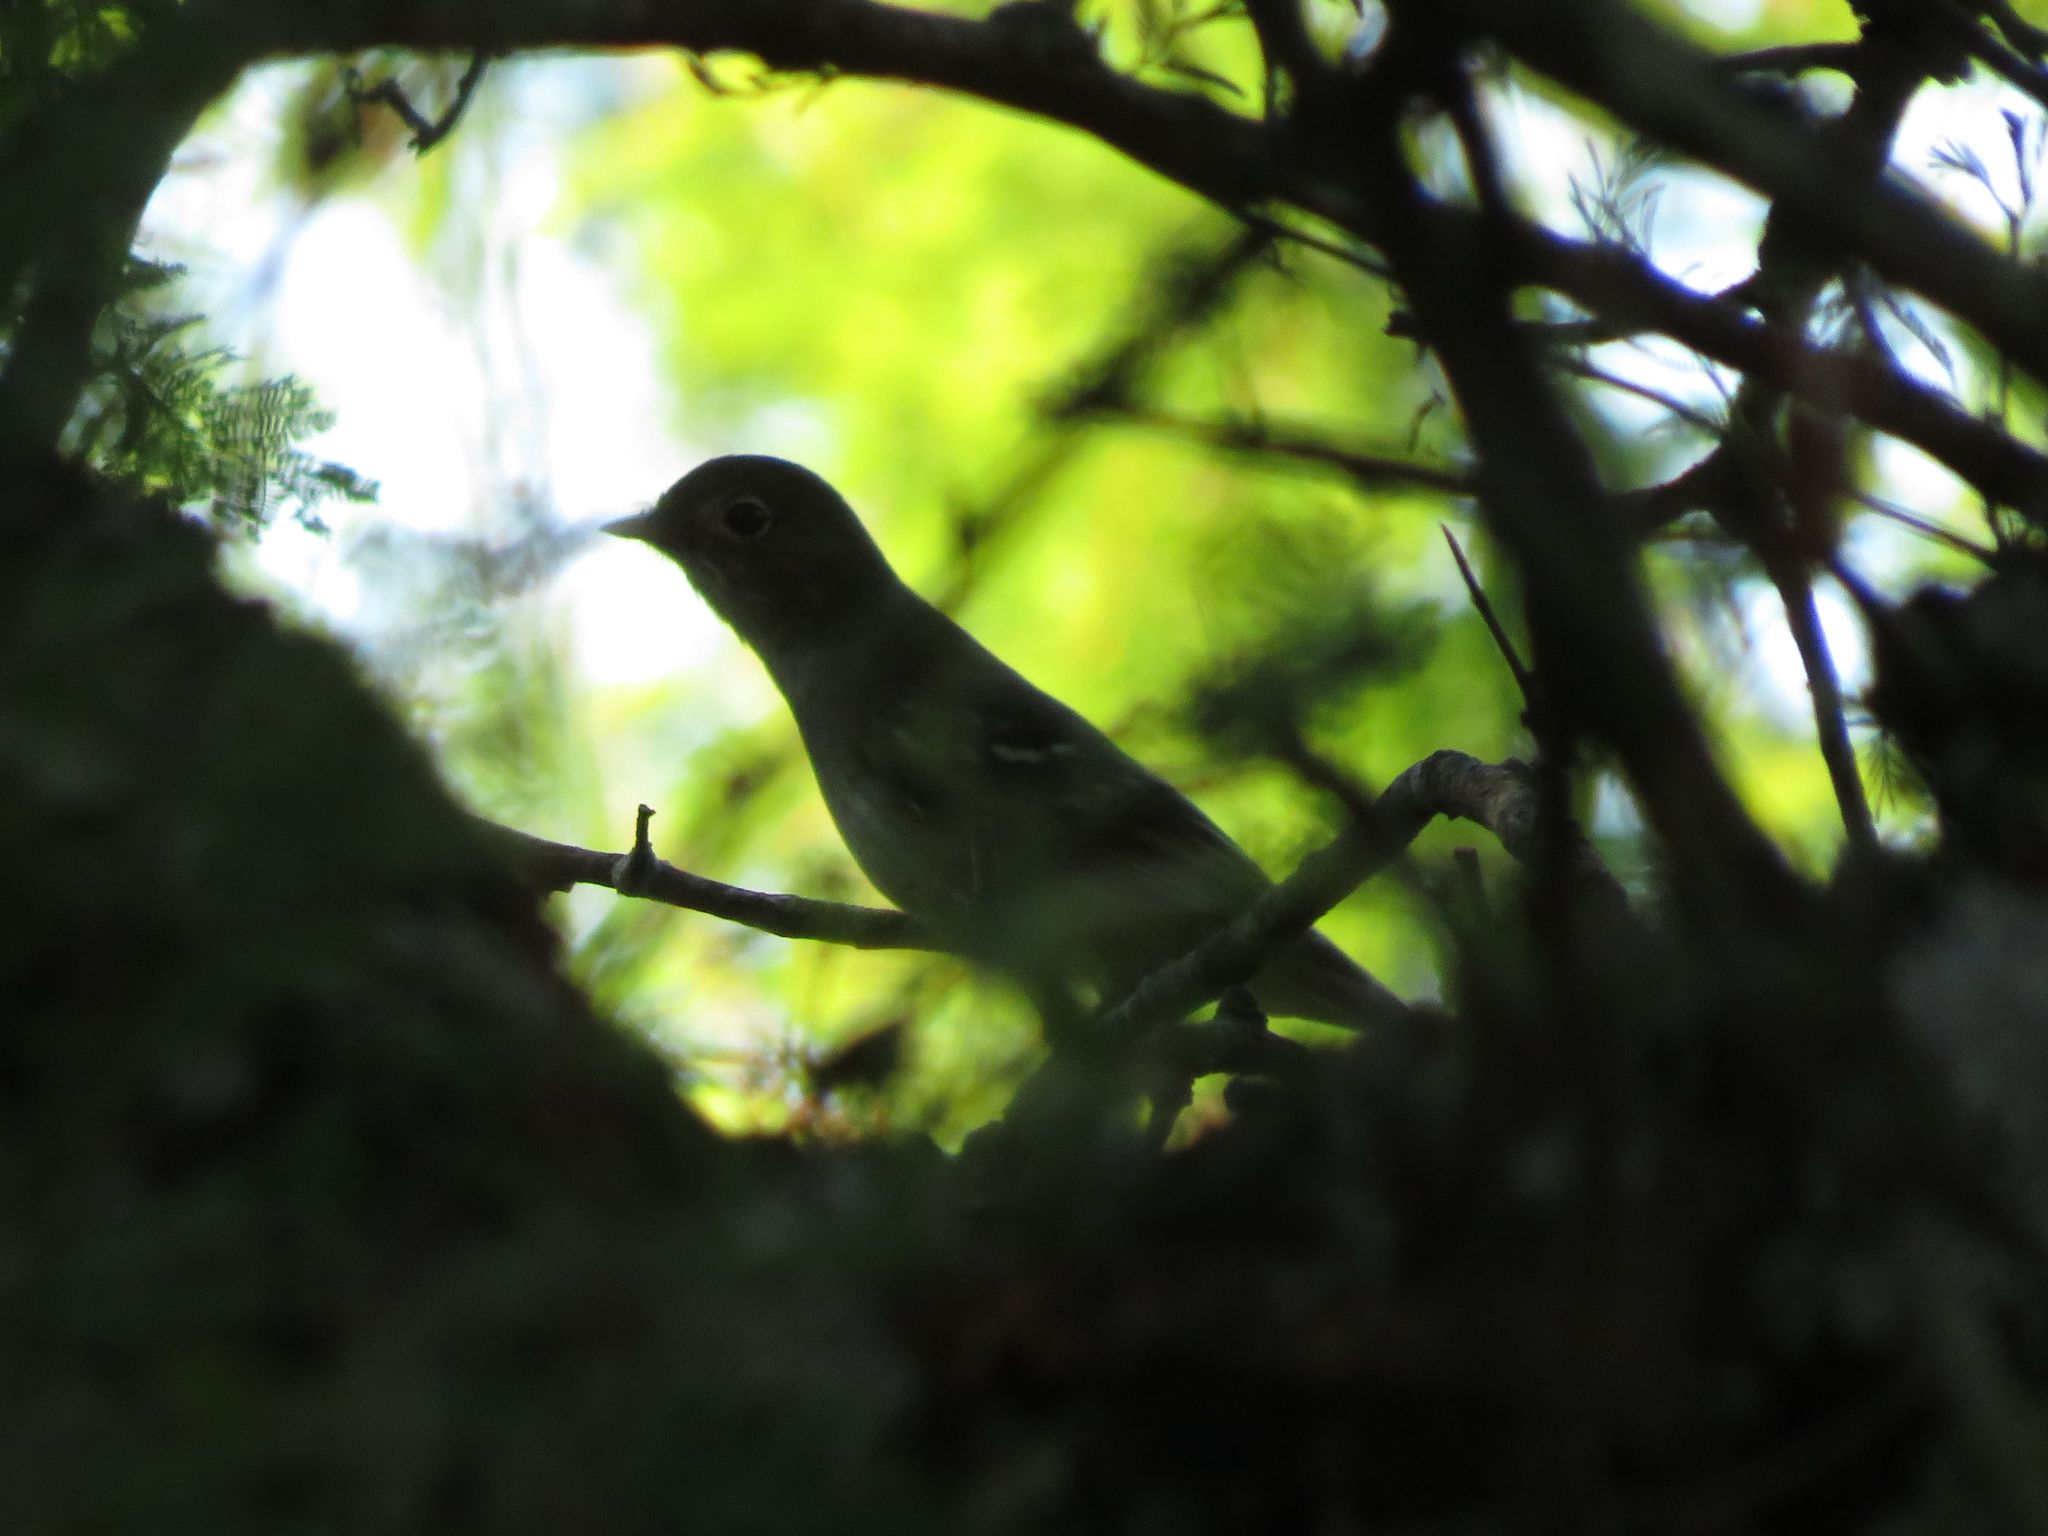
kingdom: Animalia
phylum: Chordata
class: Aves
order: Passeriformes
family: Tyrannidae
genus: Elaenia
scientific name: Elaenia parvirostris
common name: Small-billed elaenia
